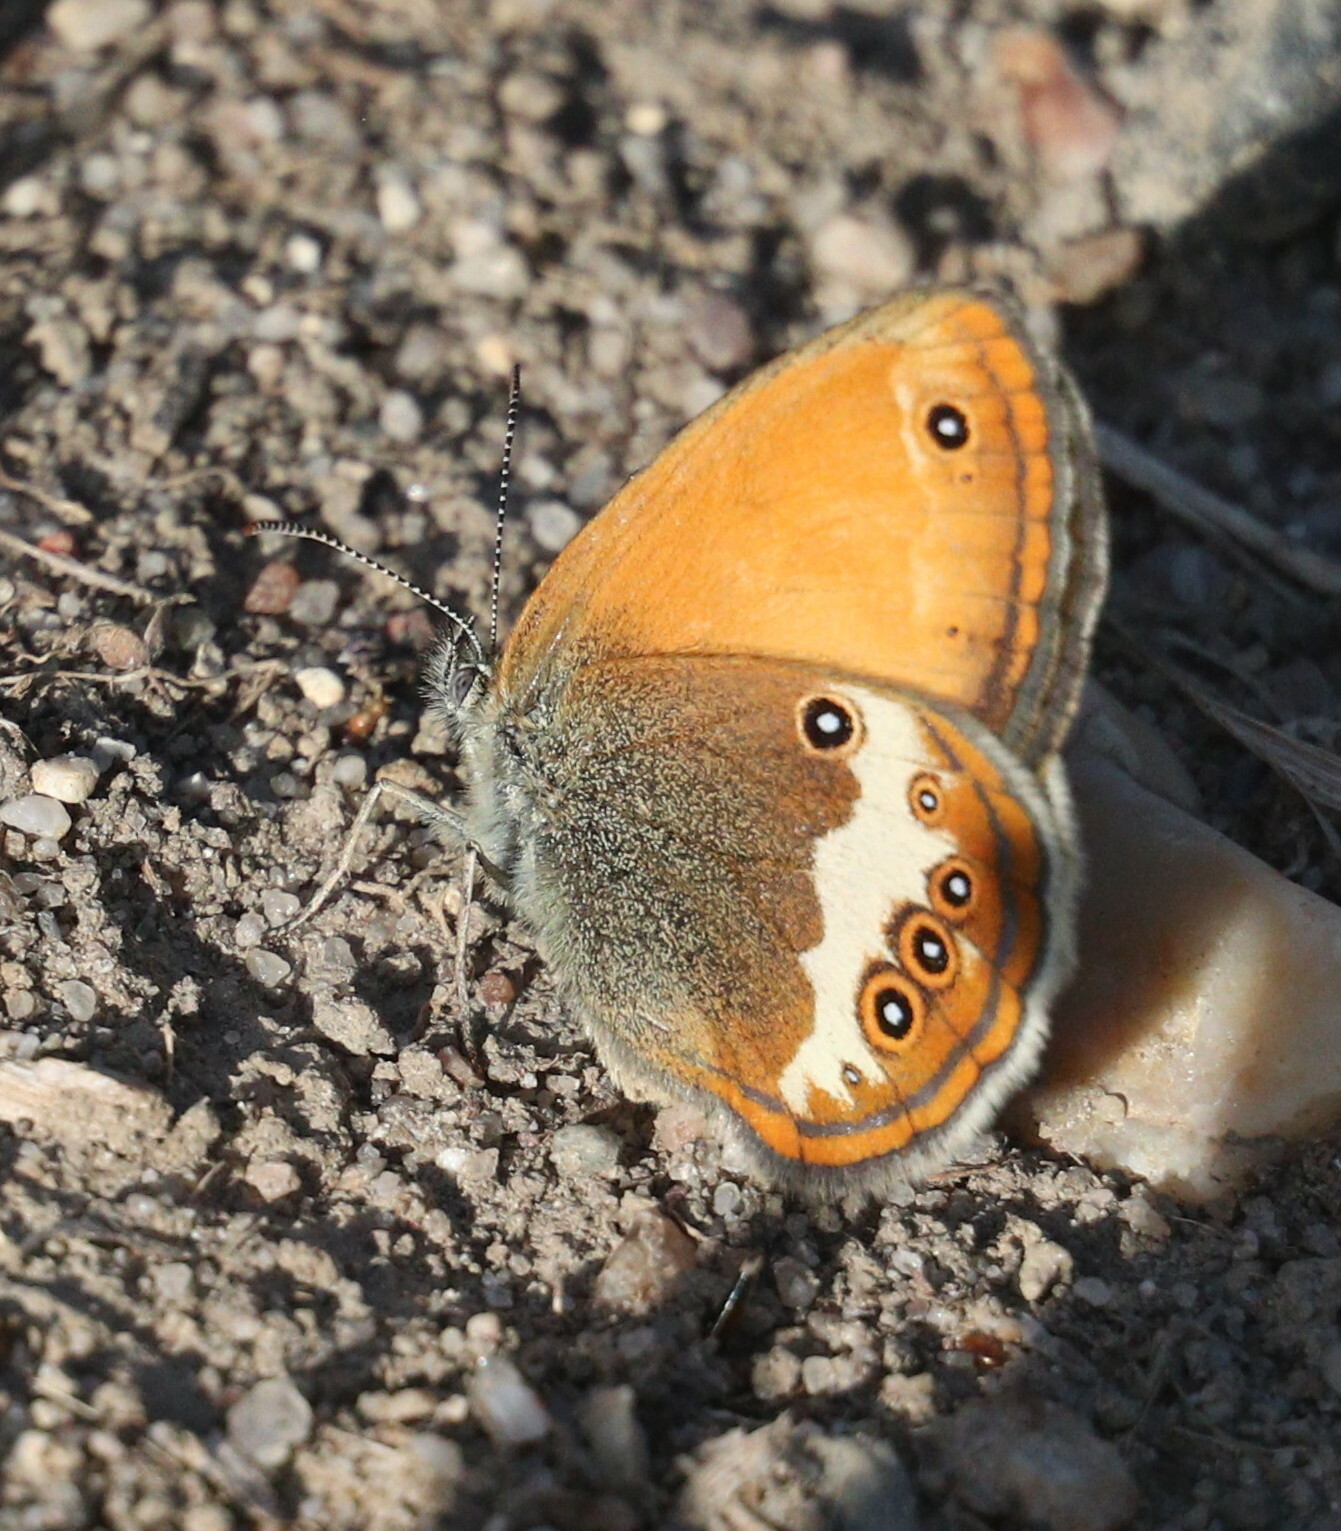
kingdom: Animalia
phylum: Arthropoda
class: Insecta
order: Lepidoptera
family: Nymphalidae
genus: Coenonympha
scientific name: Coenonympha arcania
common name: Pearly heath
